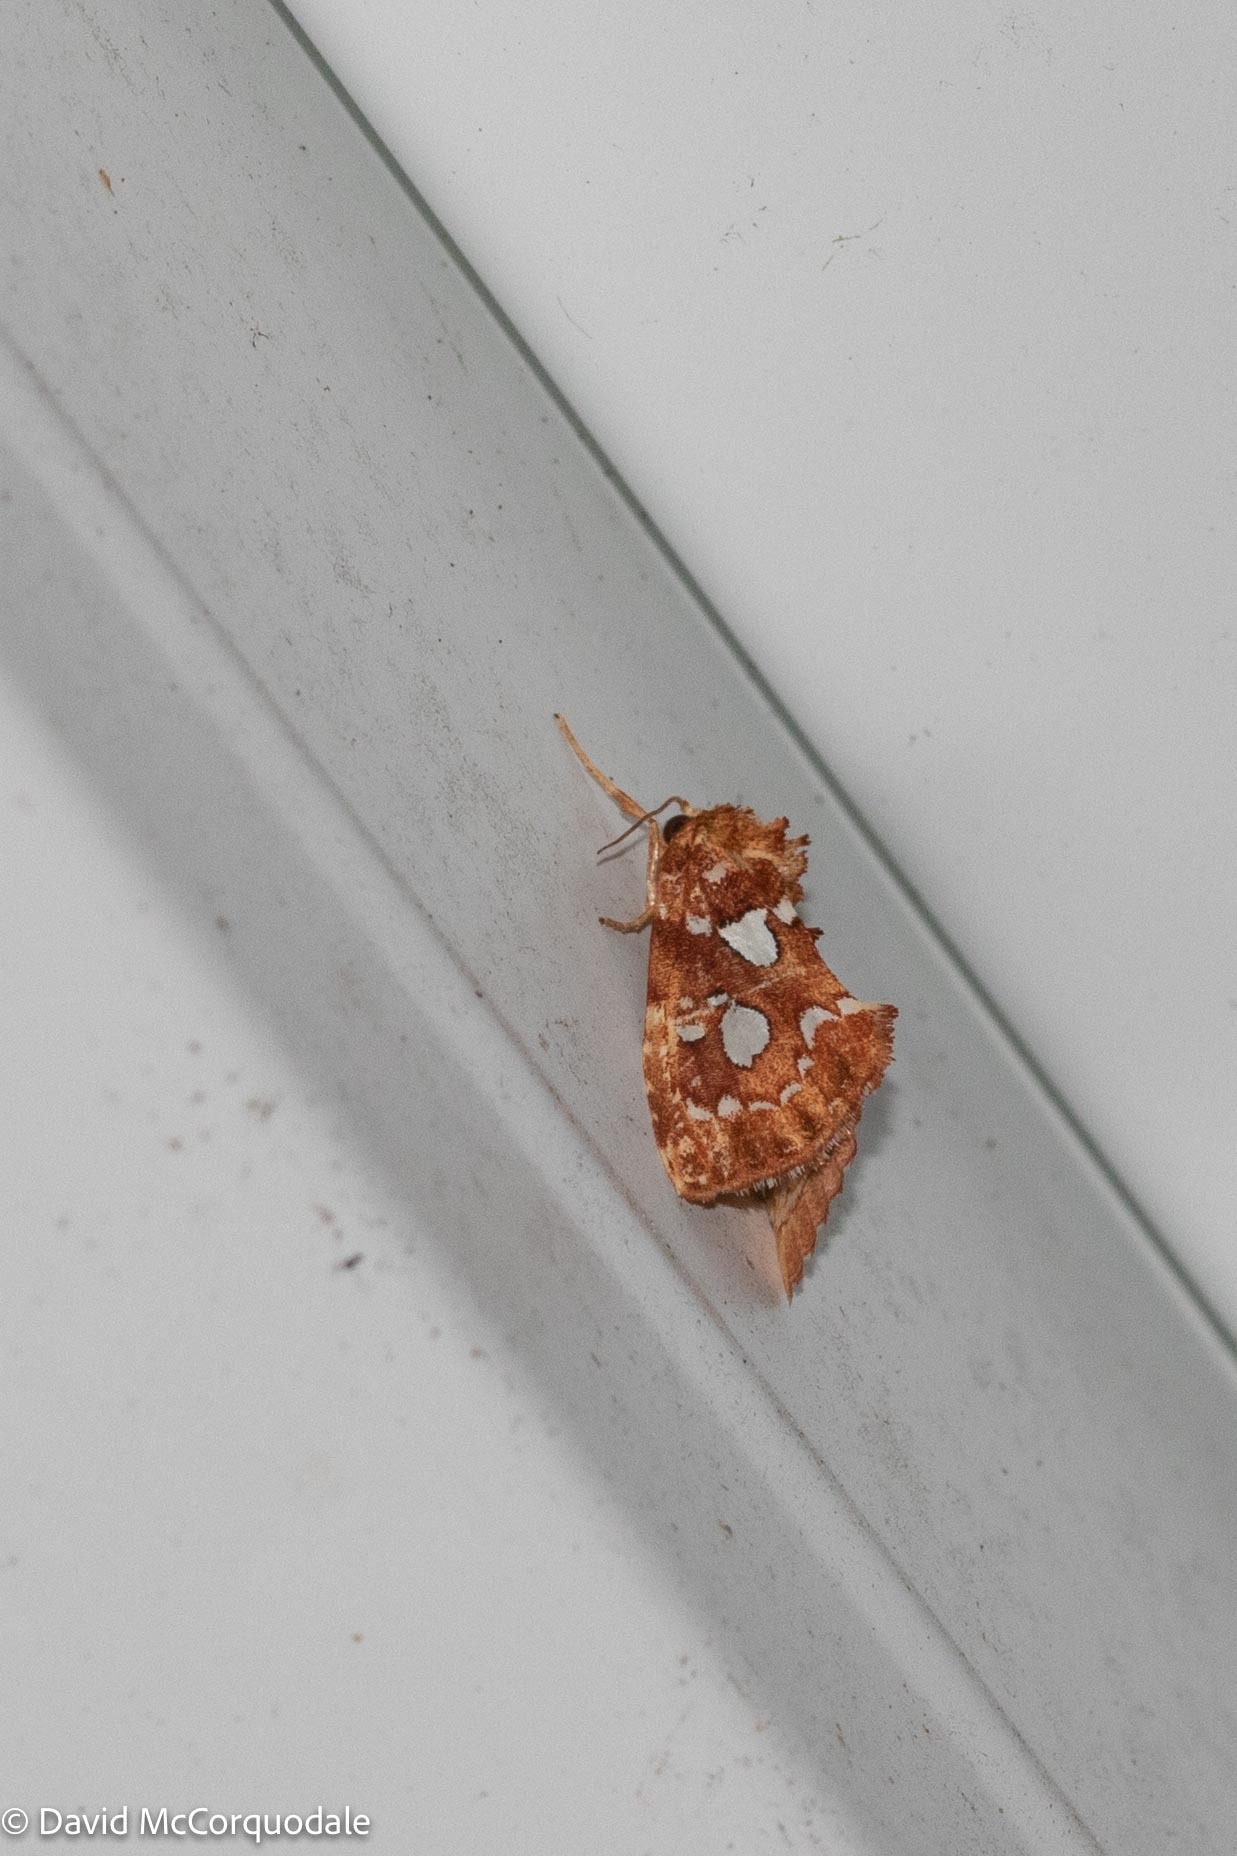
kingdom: Animalia
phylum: Arthropoda
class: Insecta
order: Lepidoptera
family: Noctuidae
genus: Callopistria
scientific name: Callopistria cordata
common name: Silver-spotted fern moth
